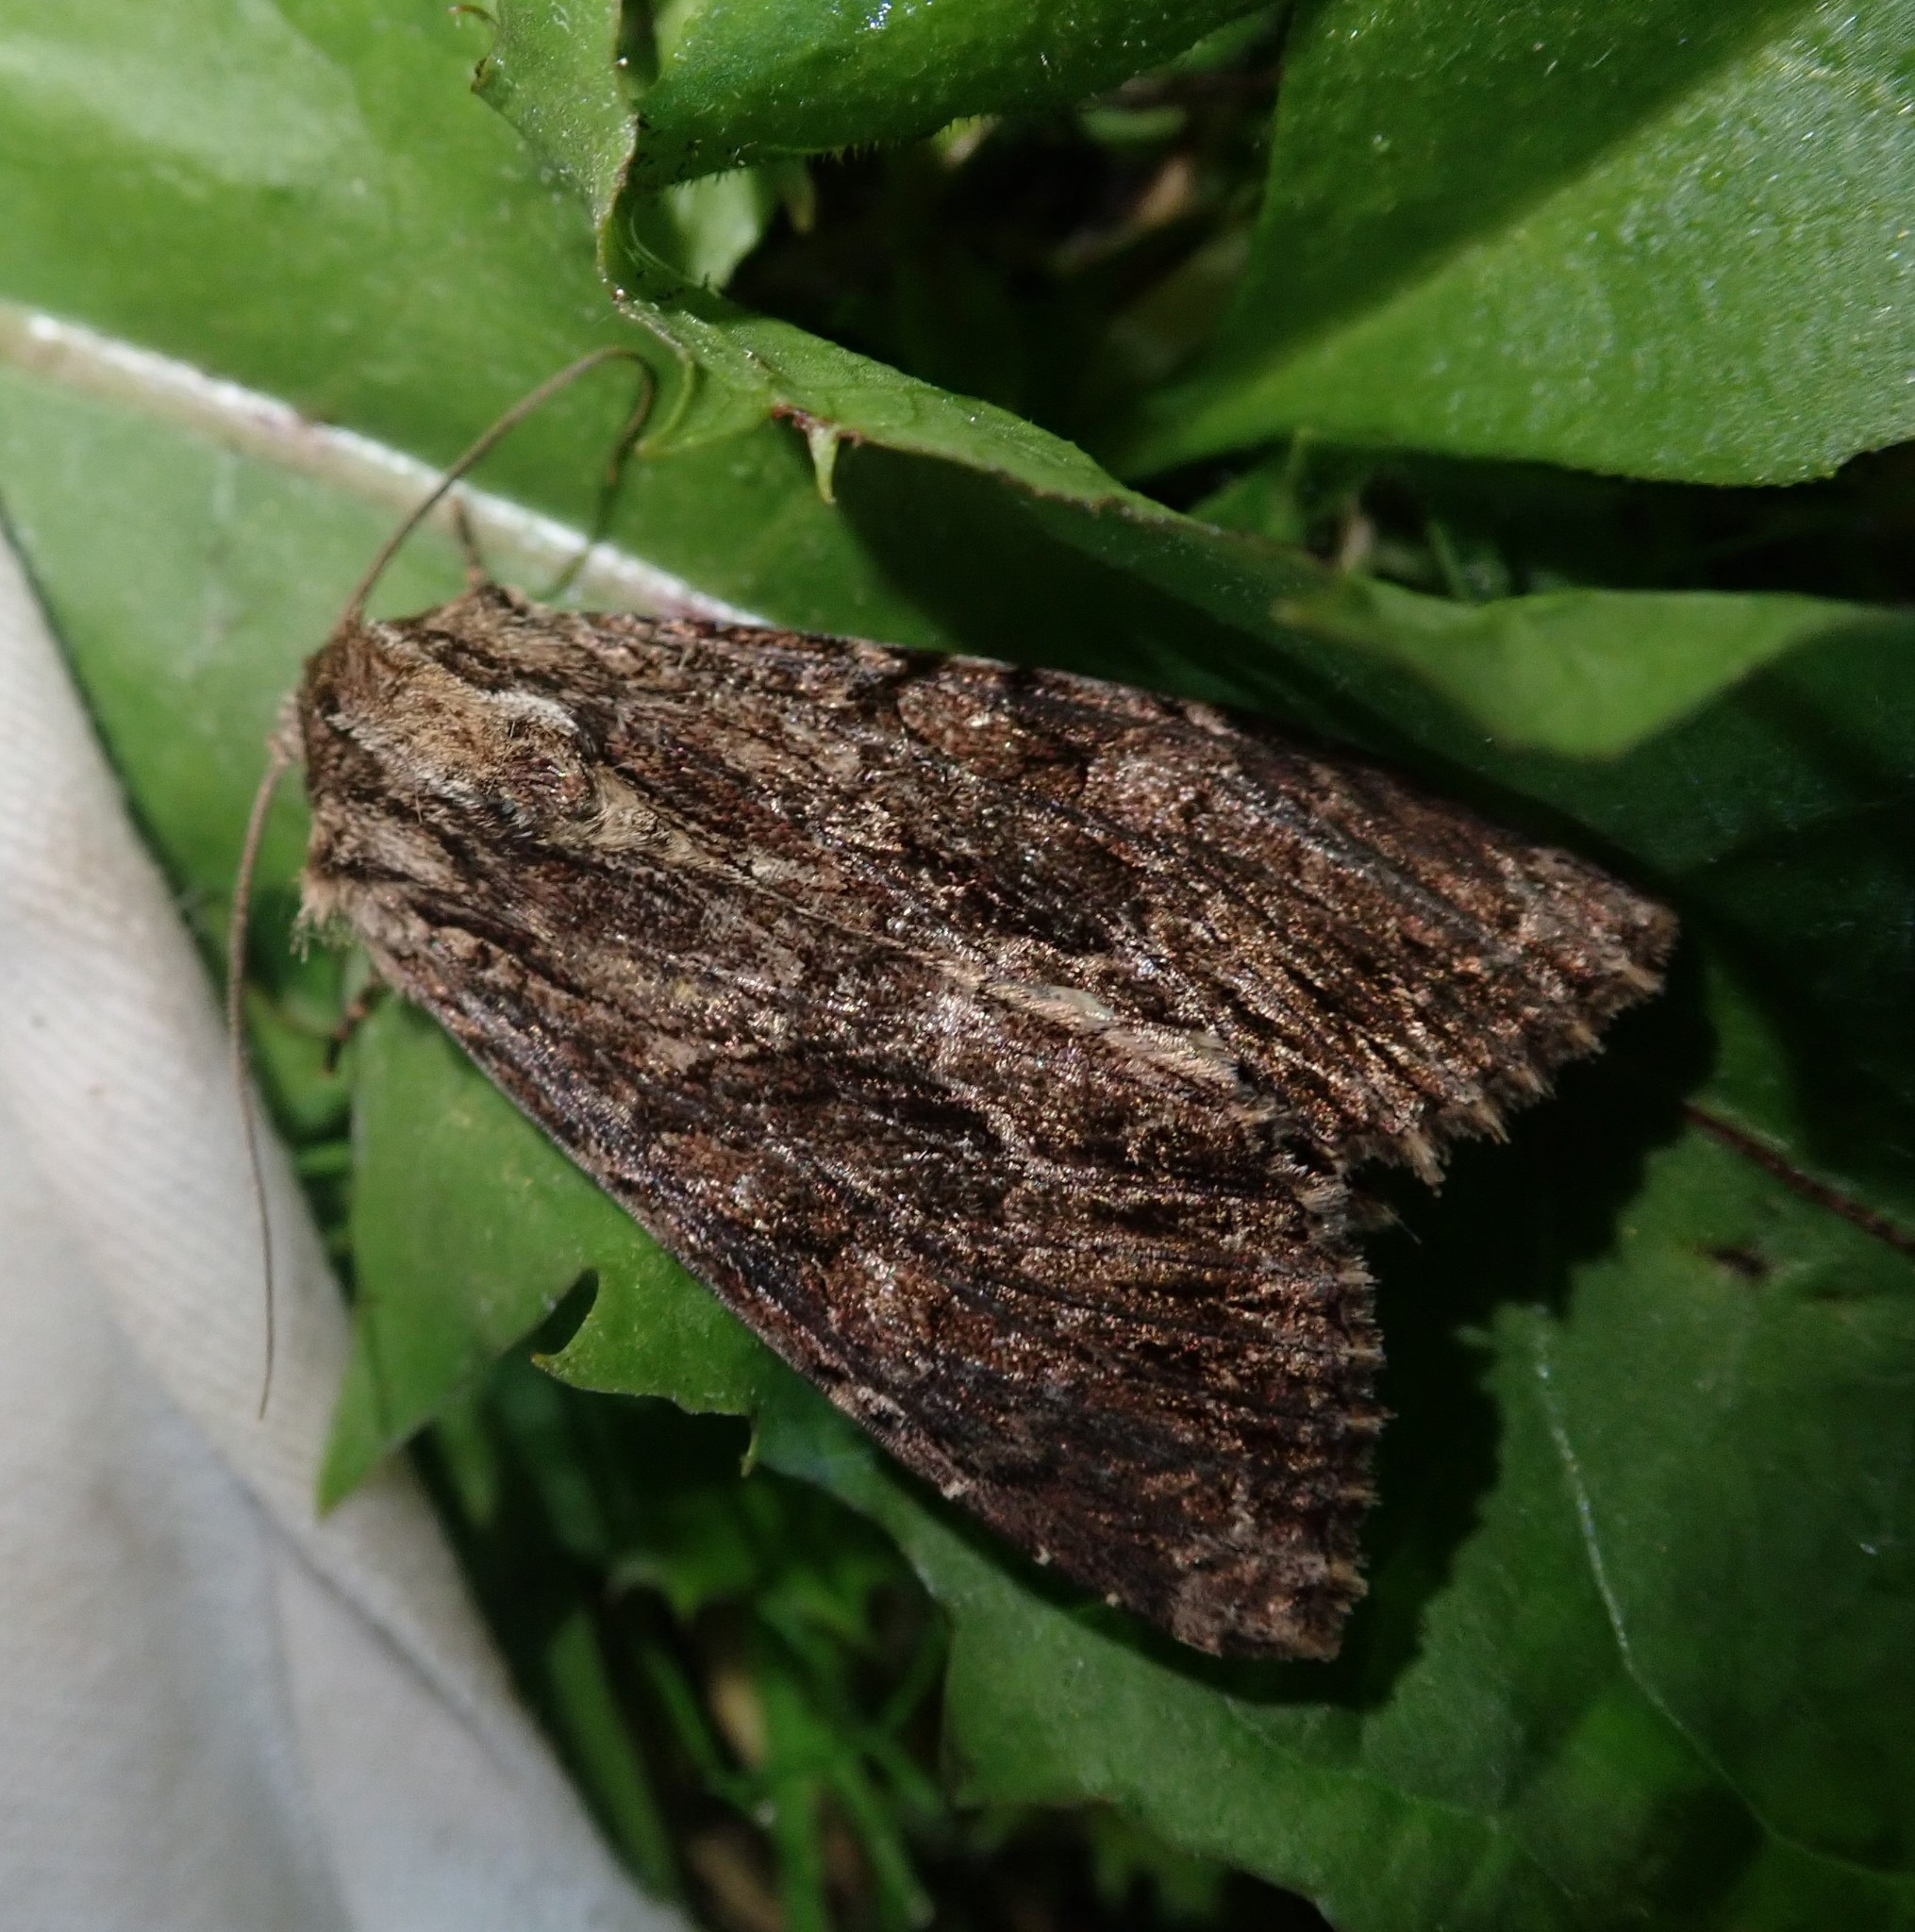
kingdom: Animalia
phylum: Arthropoda
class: Insecta
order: Lepidoptera
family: Noctuidae
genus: Apamea
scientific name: Apamea monoglypha
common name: Dark arches
